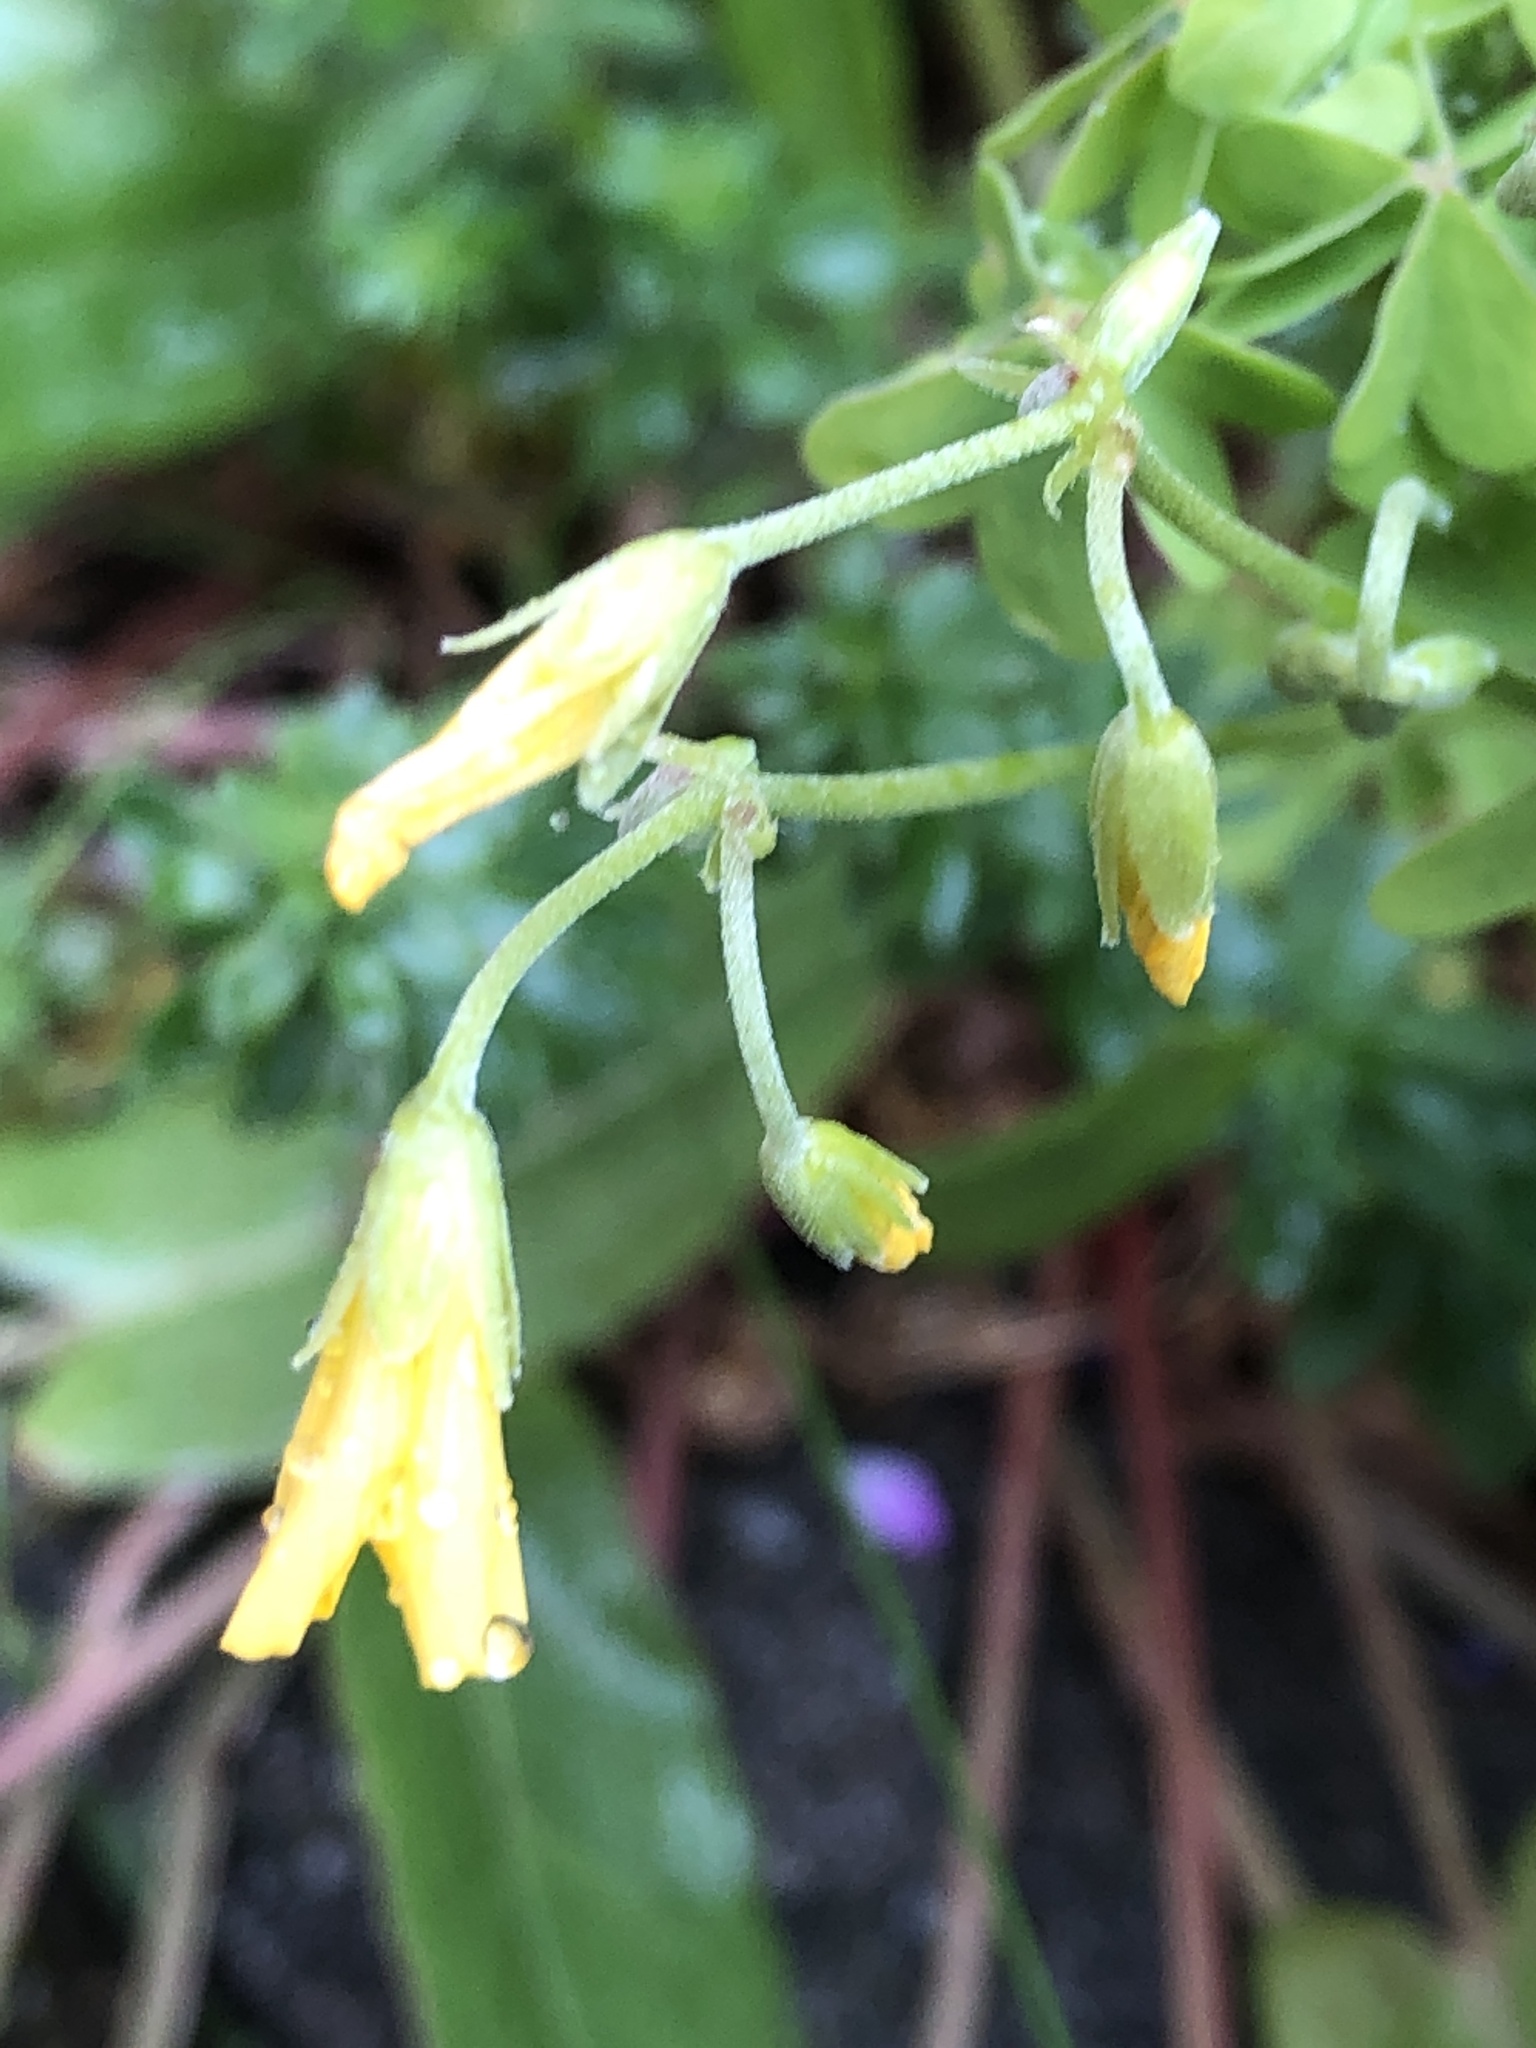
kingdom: Plantae
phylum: Tracheophyta
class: Magnoliopsida
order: Oxalidales
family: Oxalidaceae
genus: Oxalis
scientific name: Oxalis corniculata
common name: Procumbent yellow-sorrel
